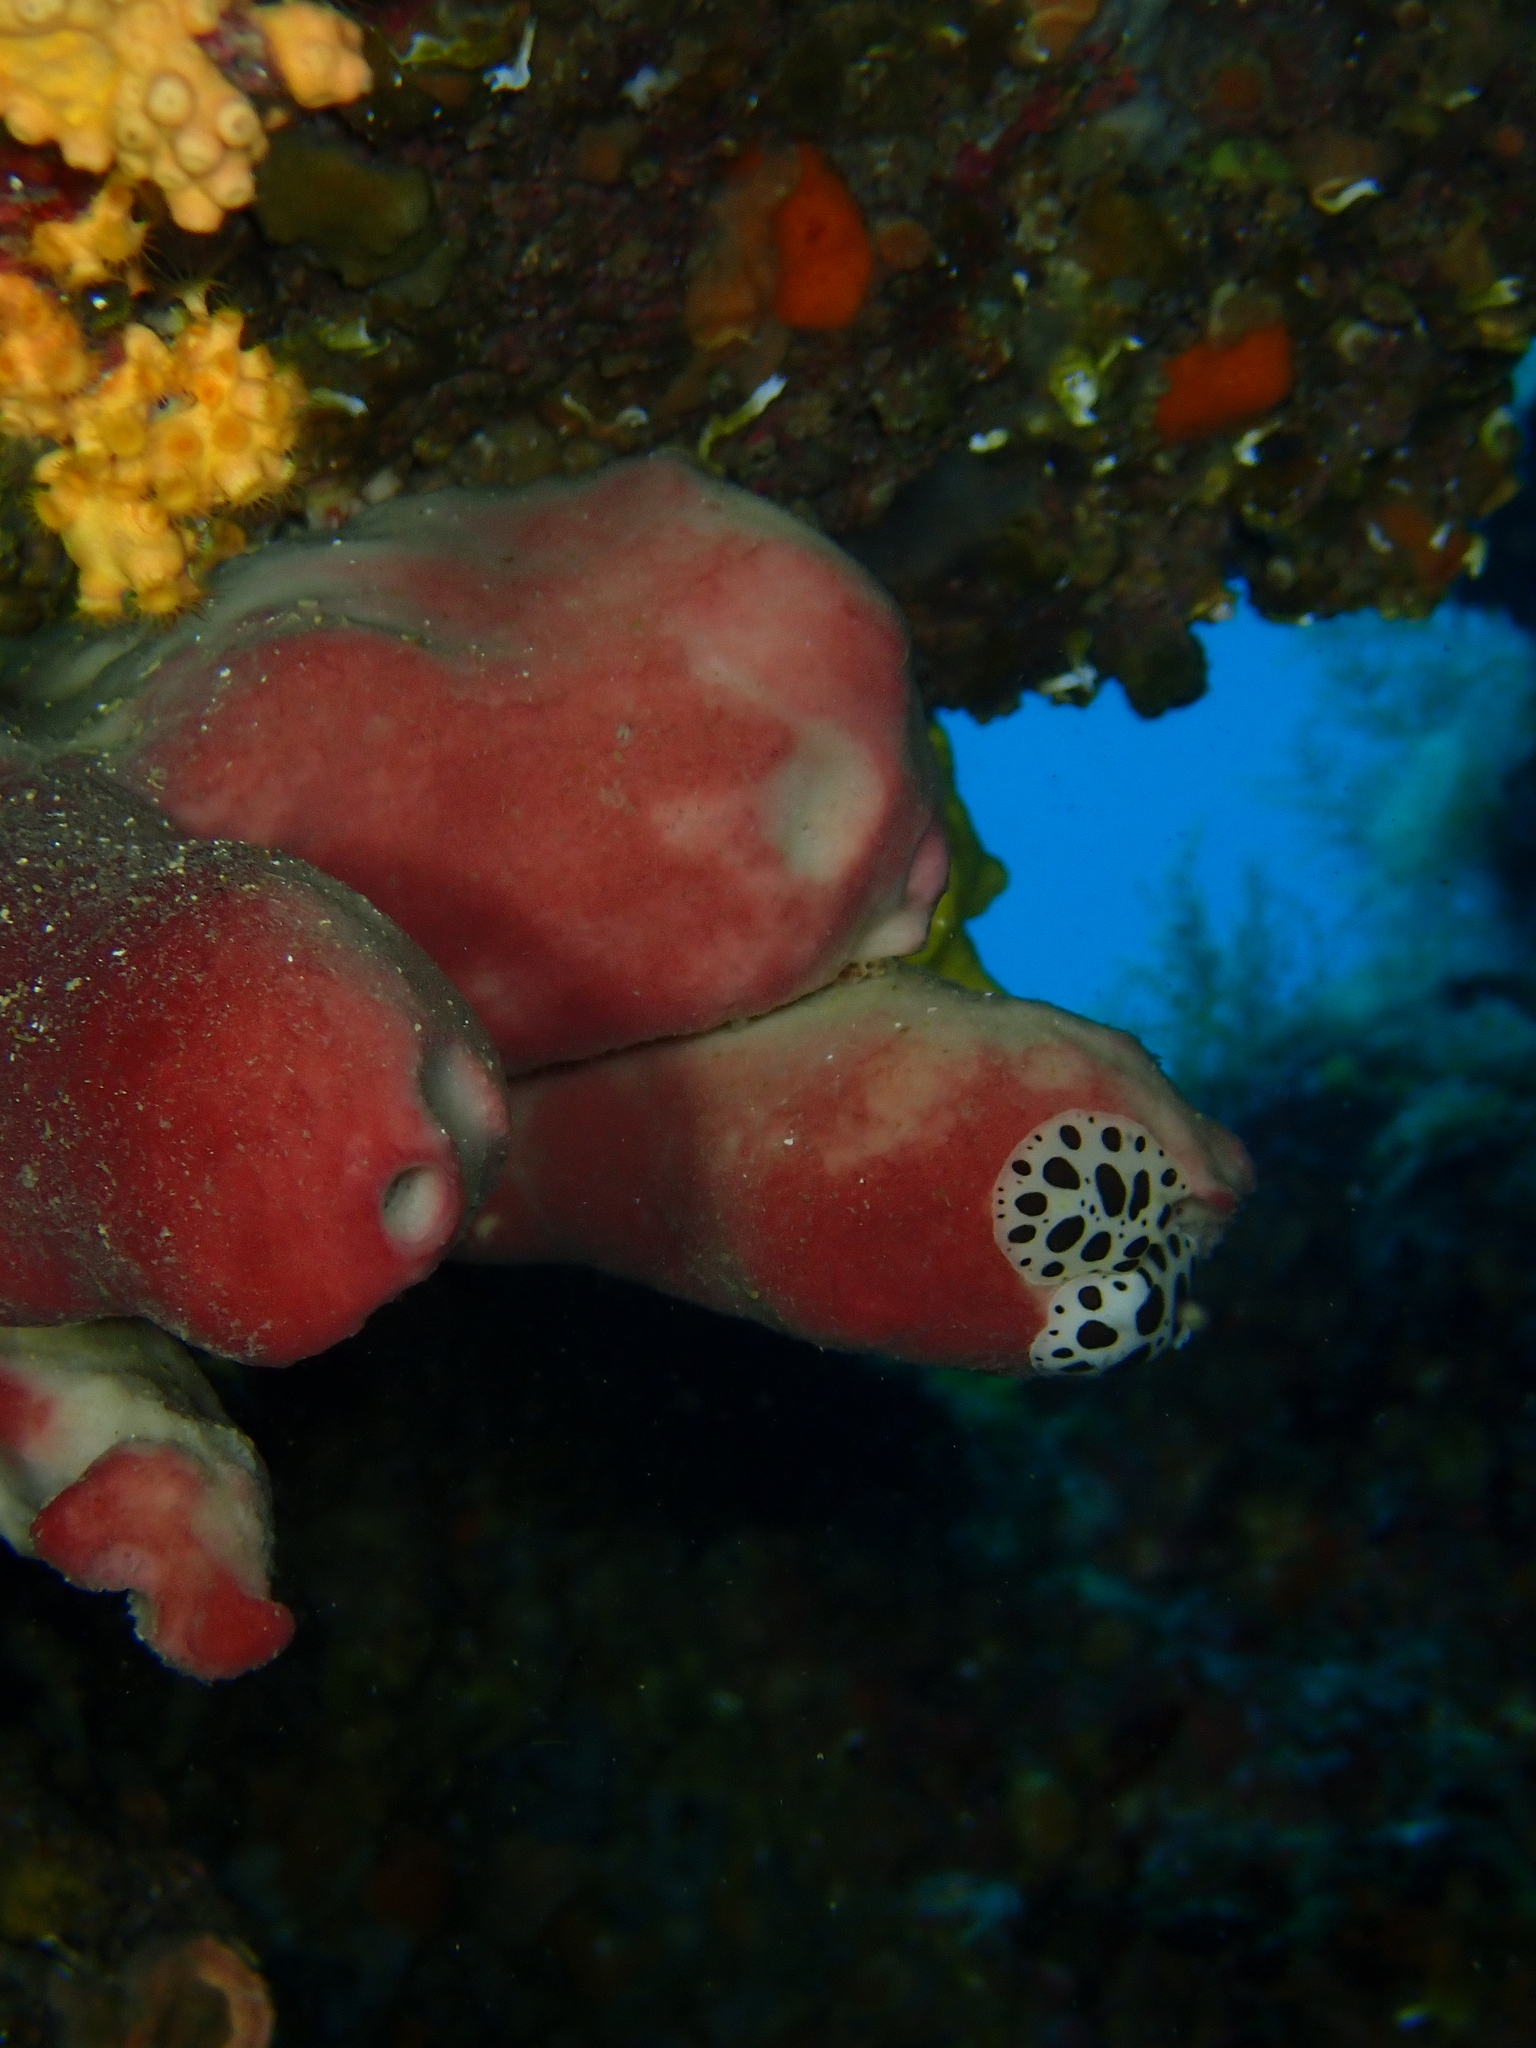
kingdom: Animalia
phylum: Mollusca
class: Gastropoda
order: Nudibranchia
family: Discodorididae
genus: Peltodoris
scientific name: Peltodoris atromaculata
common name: Swiss cow nudibranch
